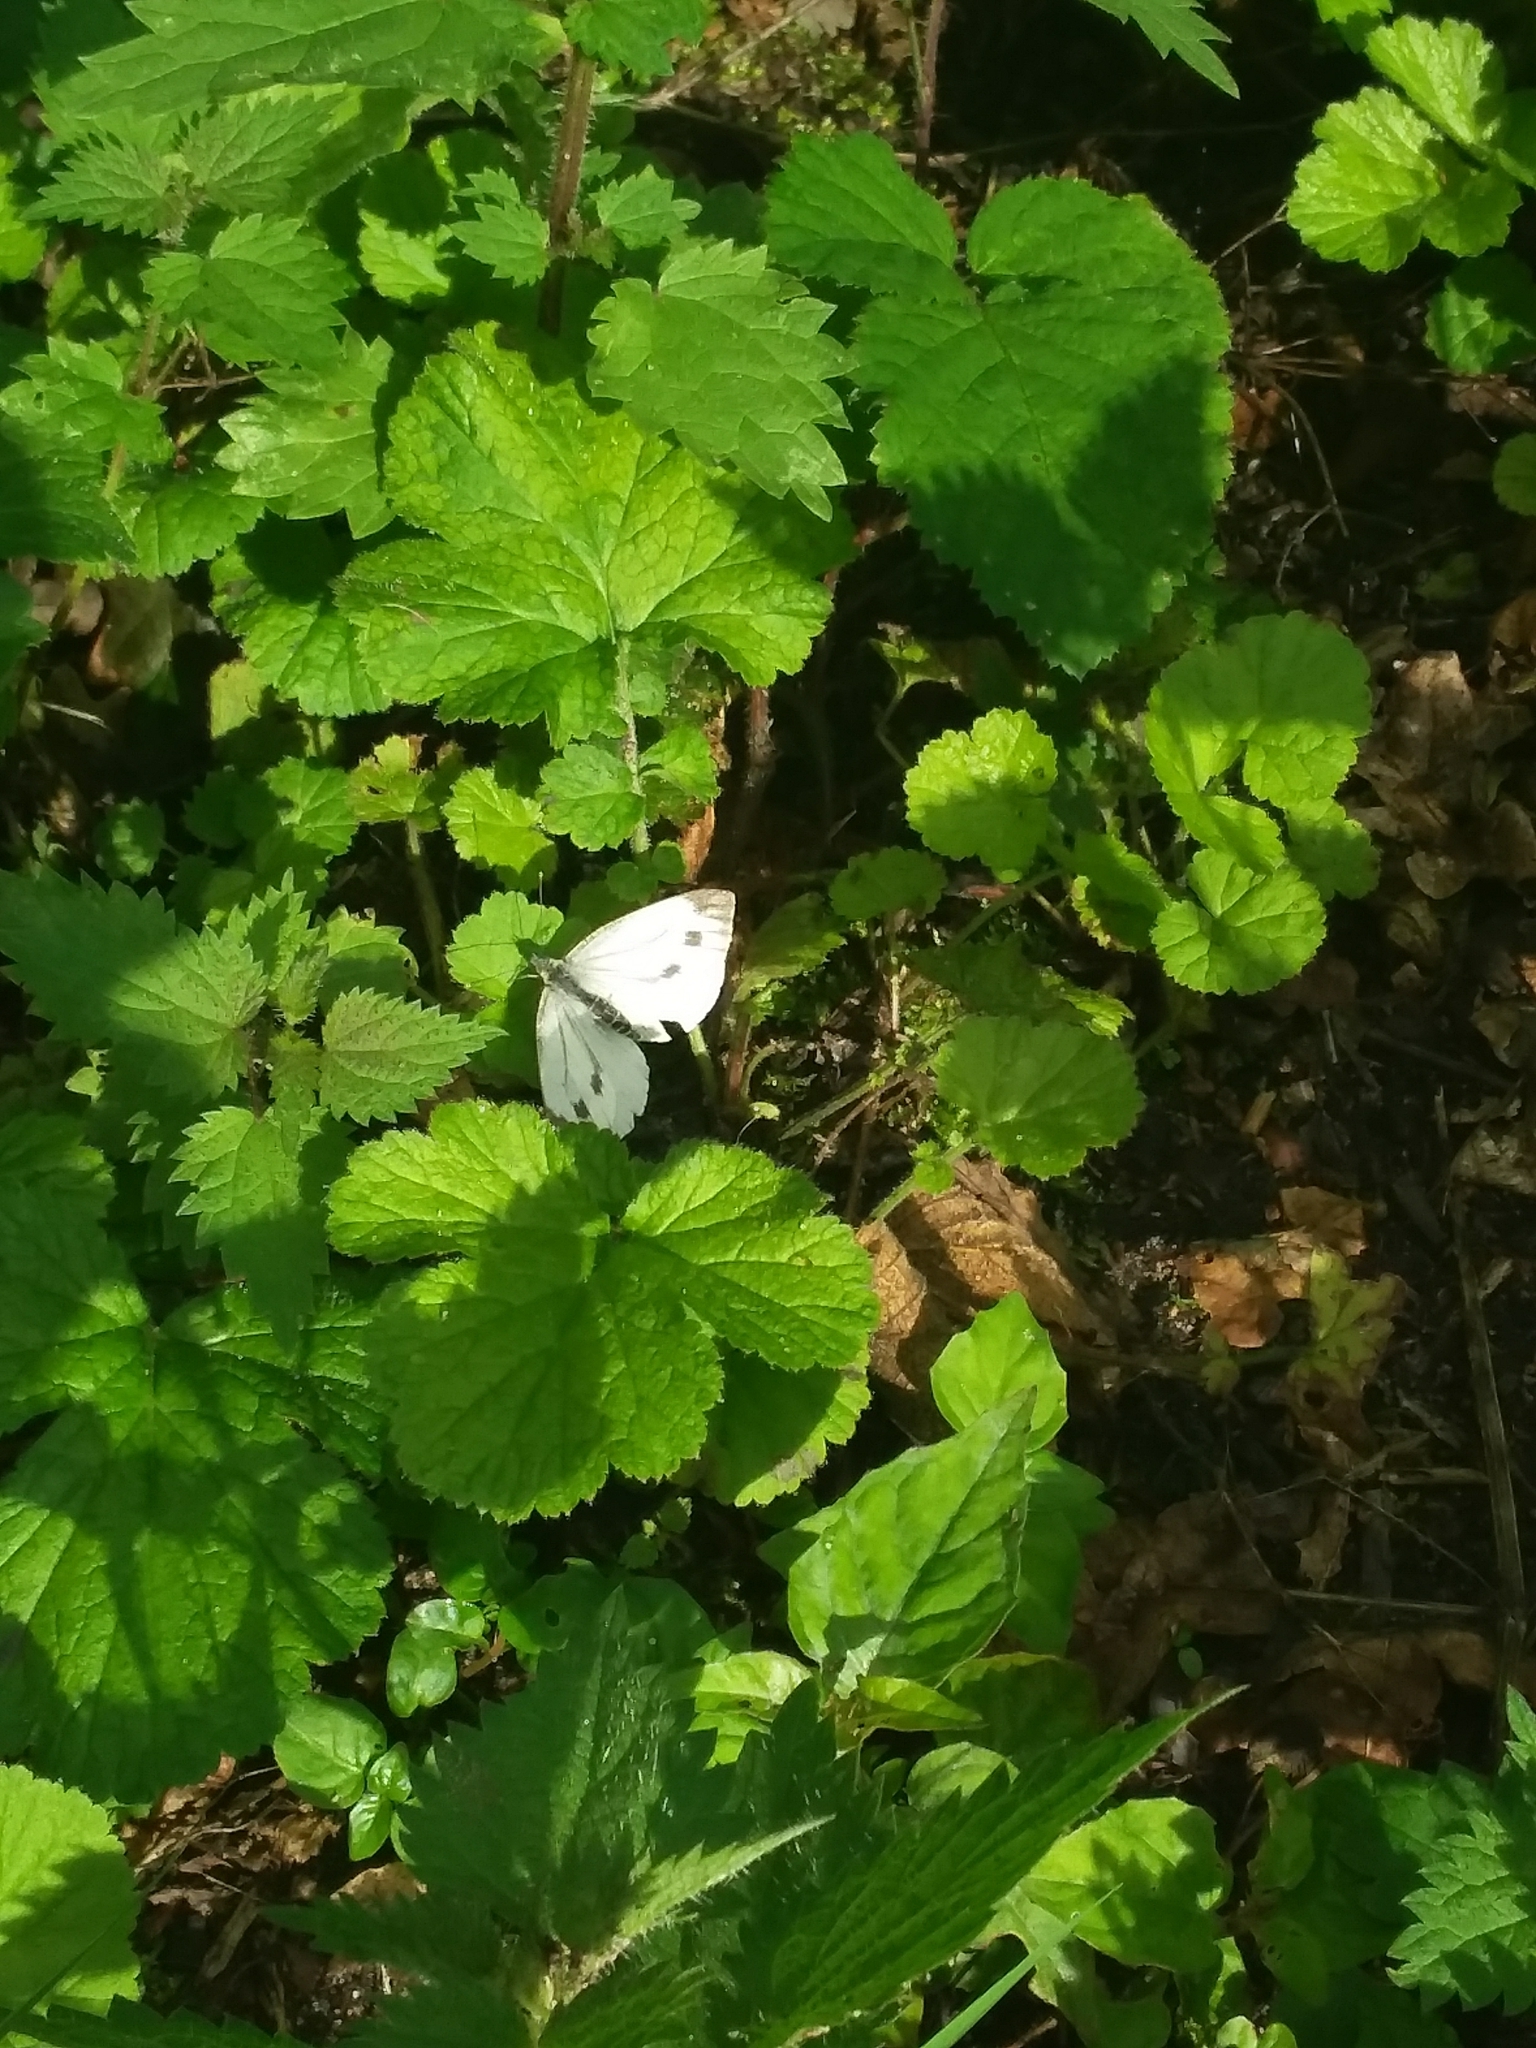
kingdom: Animalia
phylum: Arthropoda
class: Insecta
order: Lepidoptera
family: Pieridae
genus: Pieris
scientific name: Pieris napi
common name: Green-veined white
